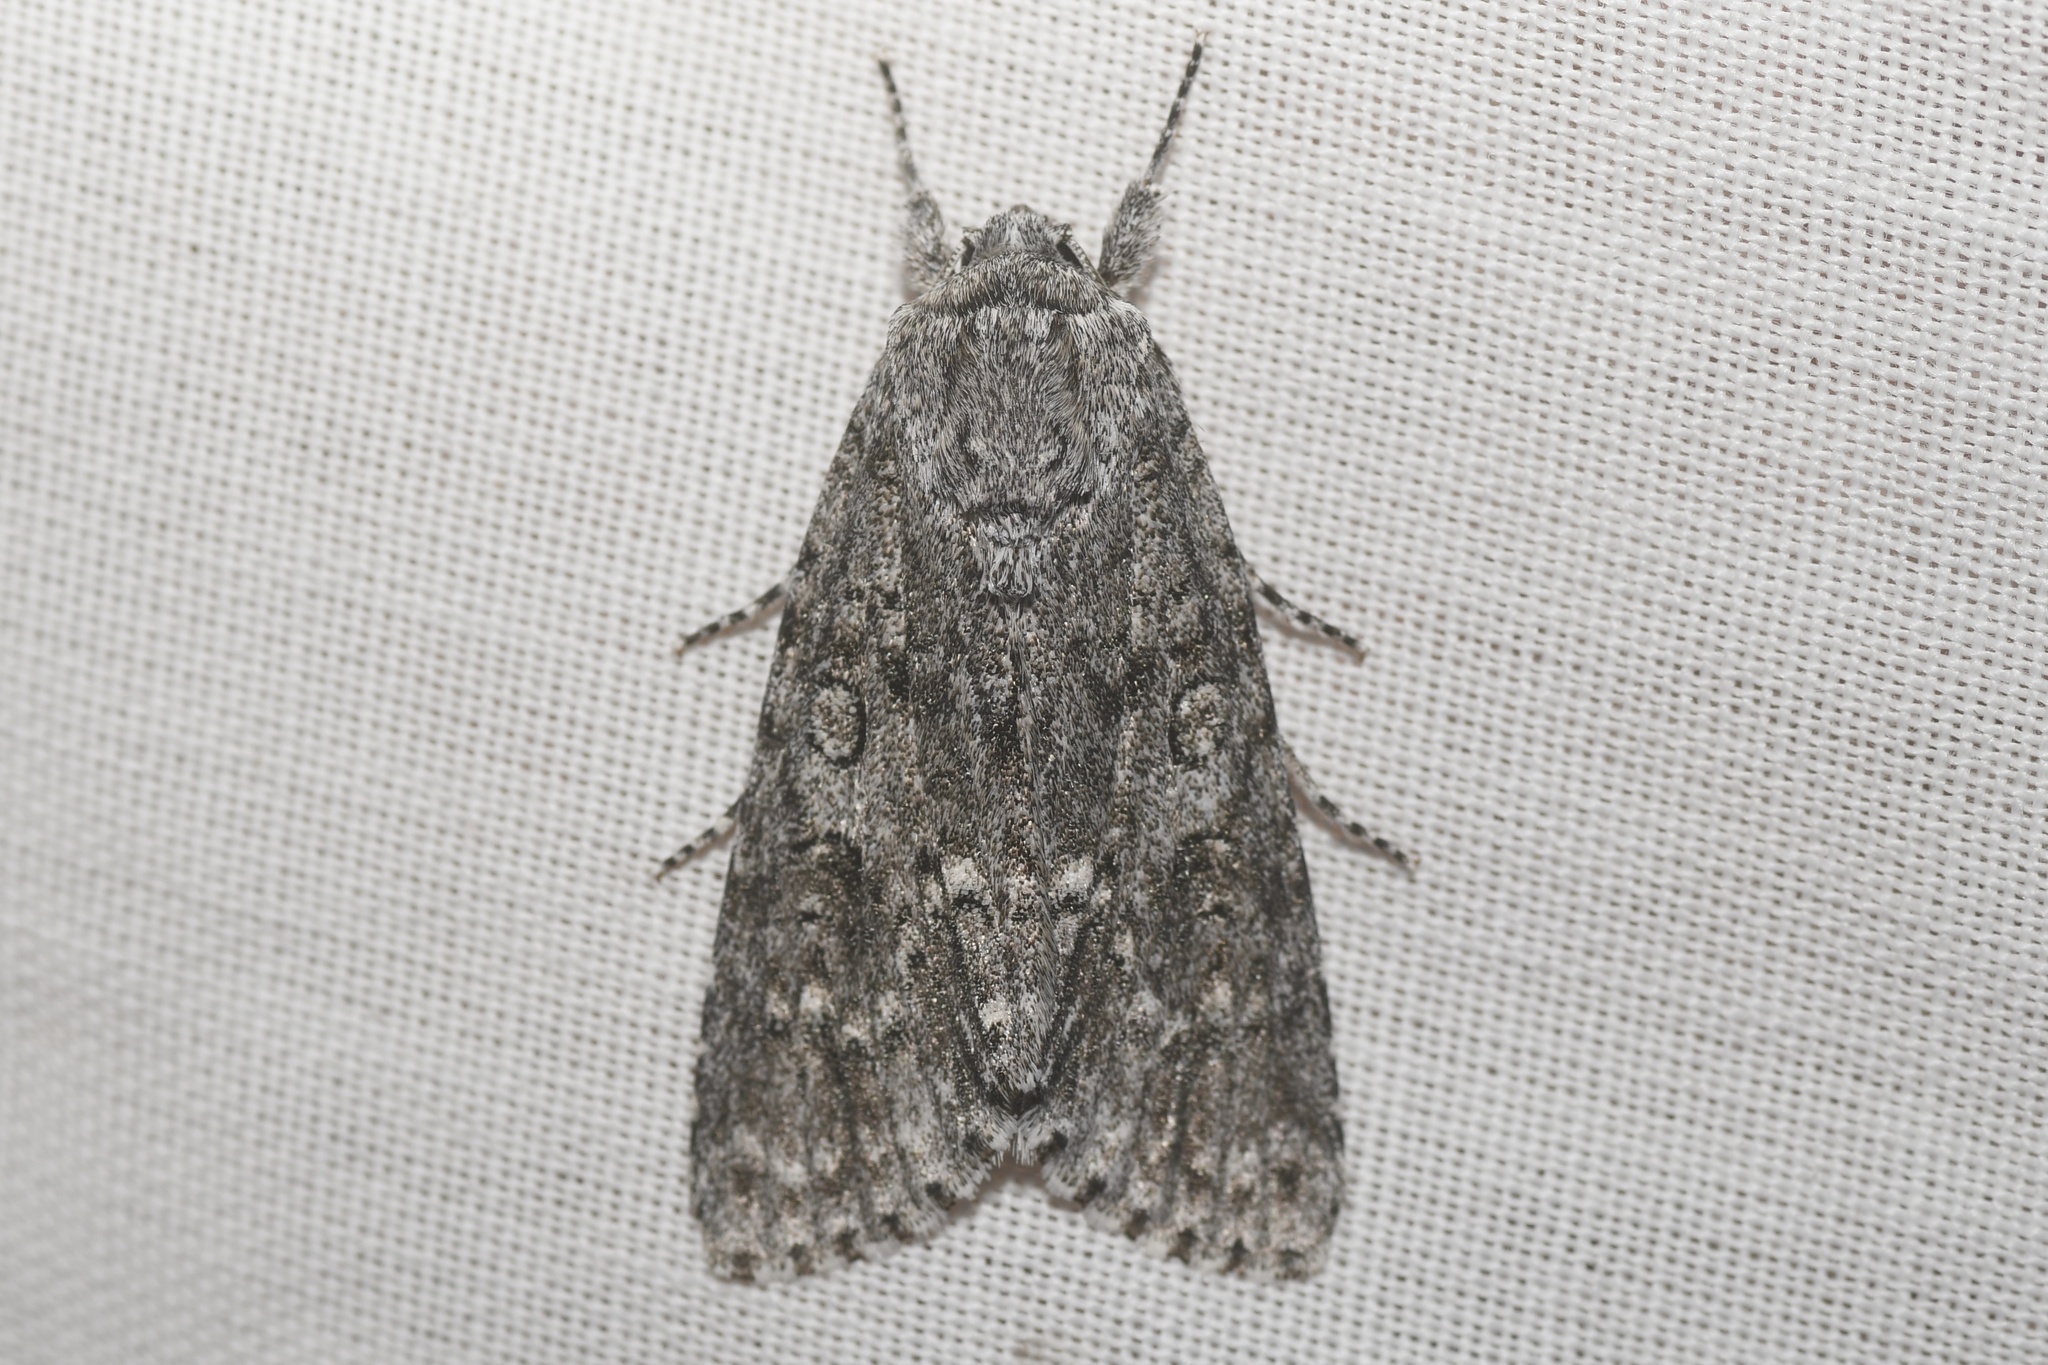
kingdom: Animalia
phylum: Arthropoda
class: Insecta
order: Lepidoptera
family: Noctuidae
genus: Acronicta
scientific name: Acronicta impleta
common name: Powdered dagger
